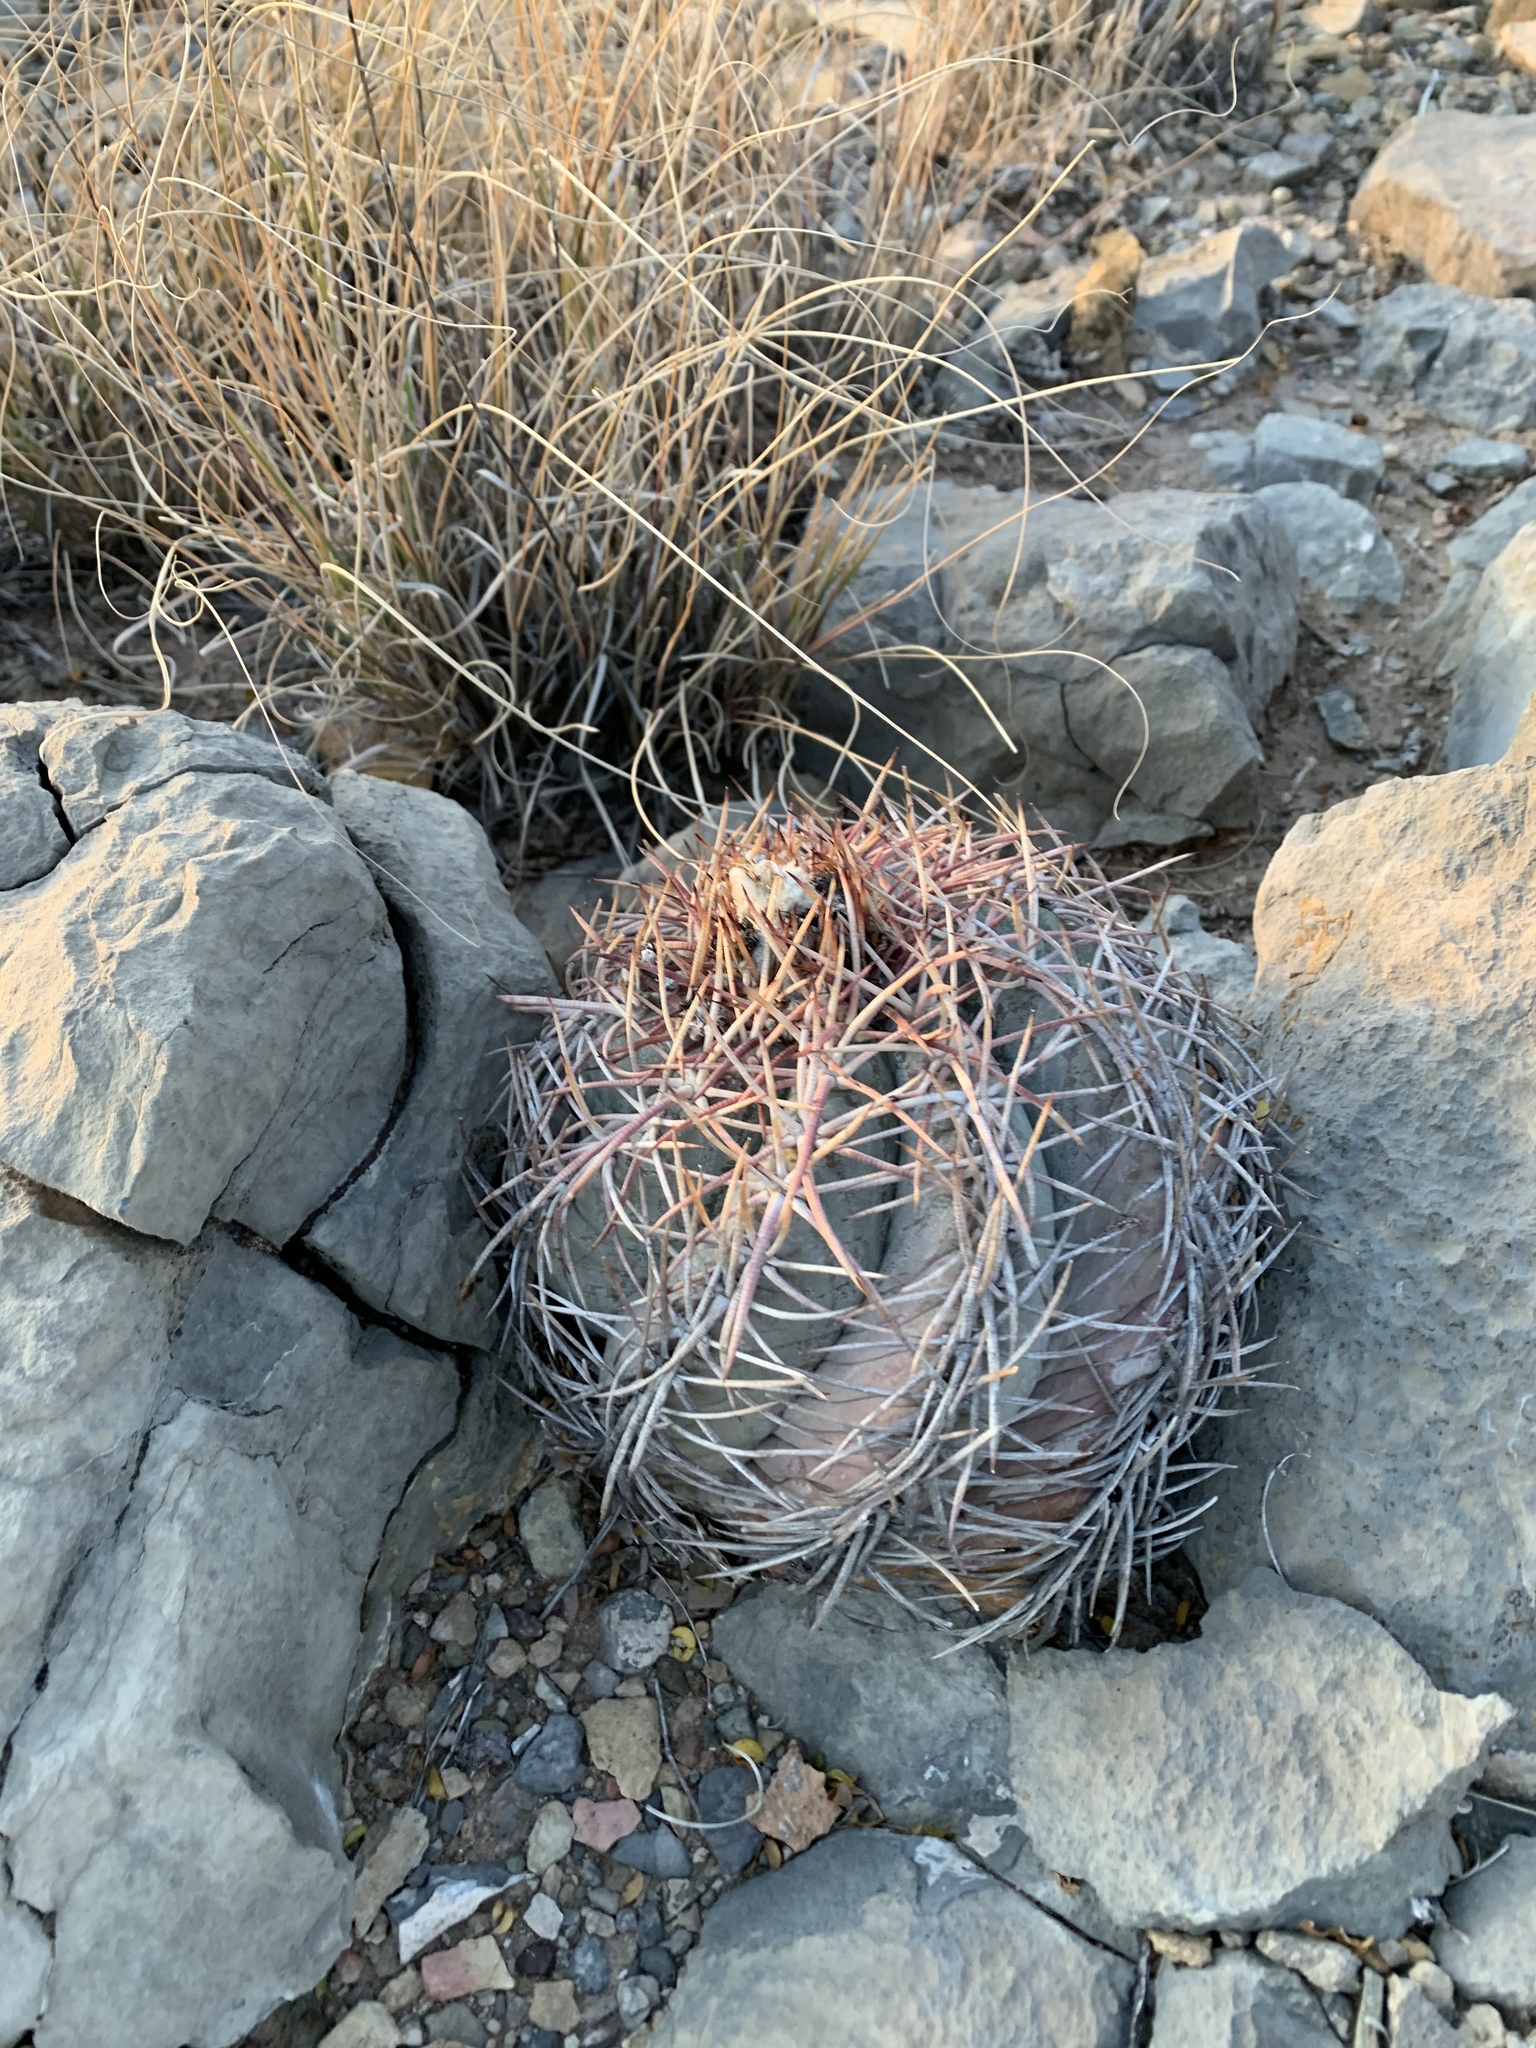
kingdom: Plantae
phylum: Tracheophyta
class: Magnoliopsida
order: Caryophyllales
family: Cactaceae
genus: Echinocactus
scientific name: Echinocactus horizonthalonius
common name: Devilshead
